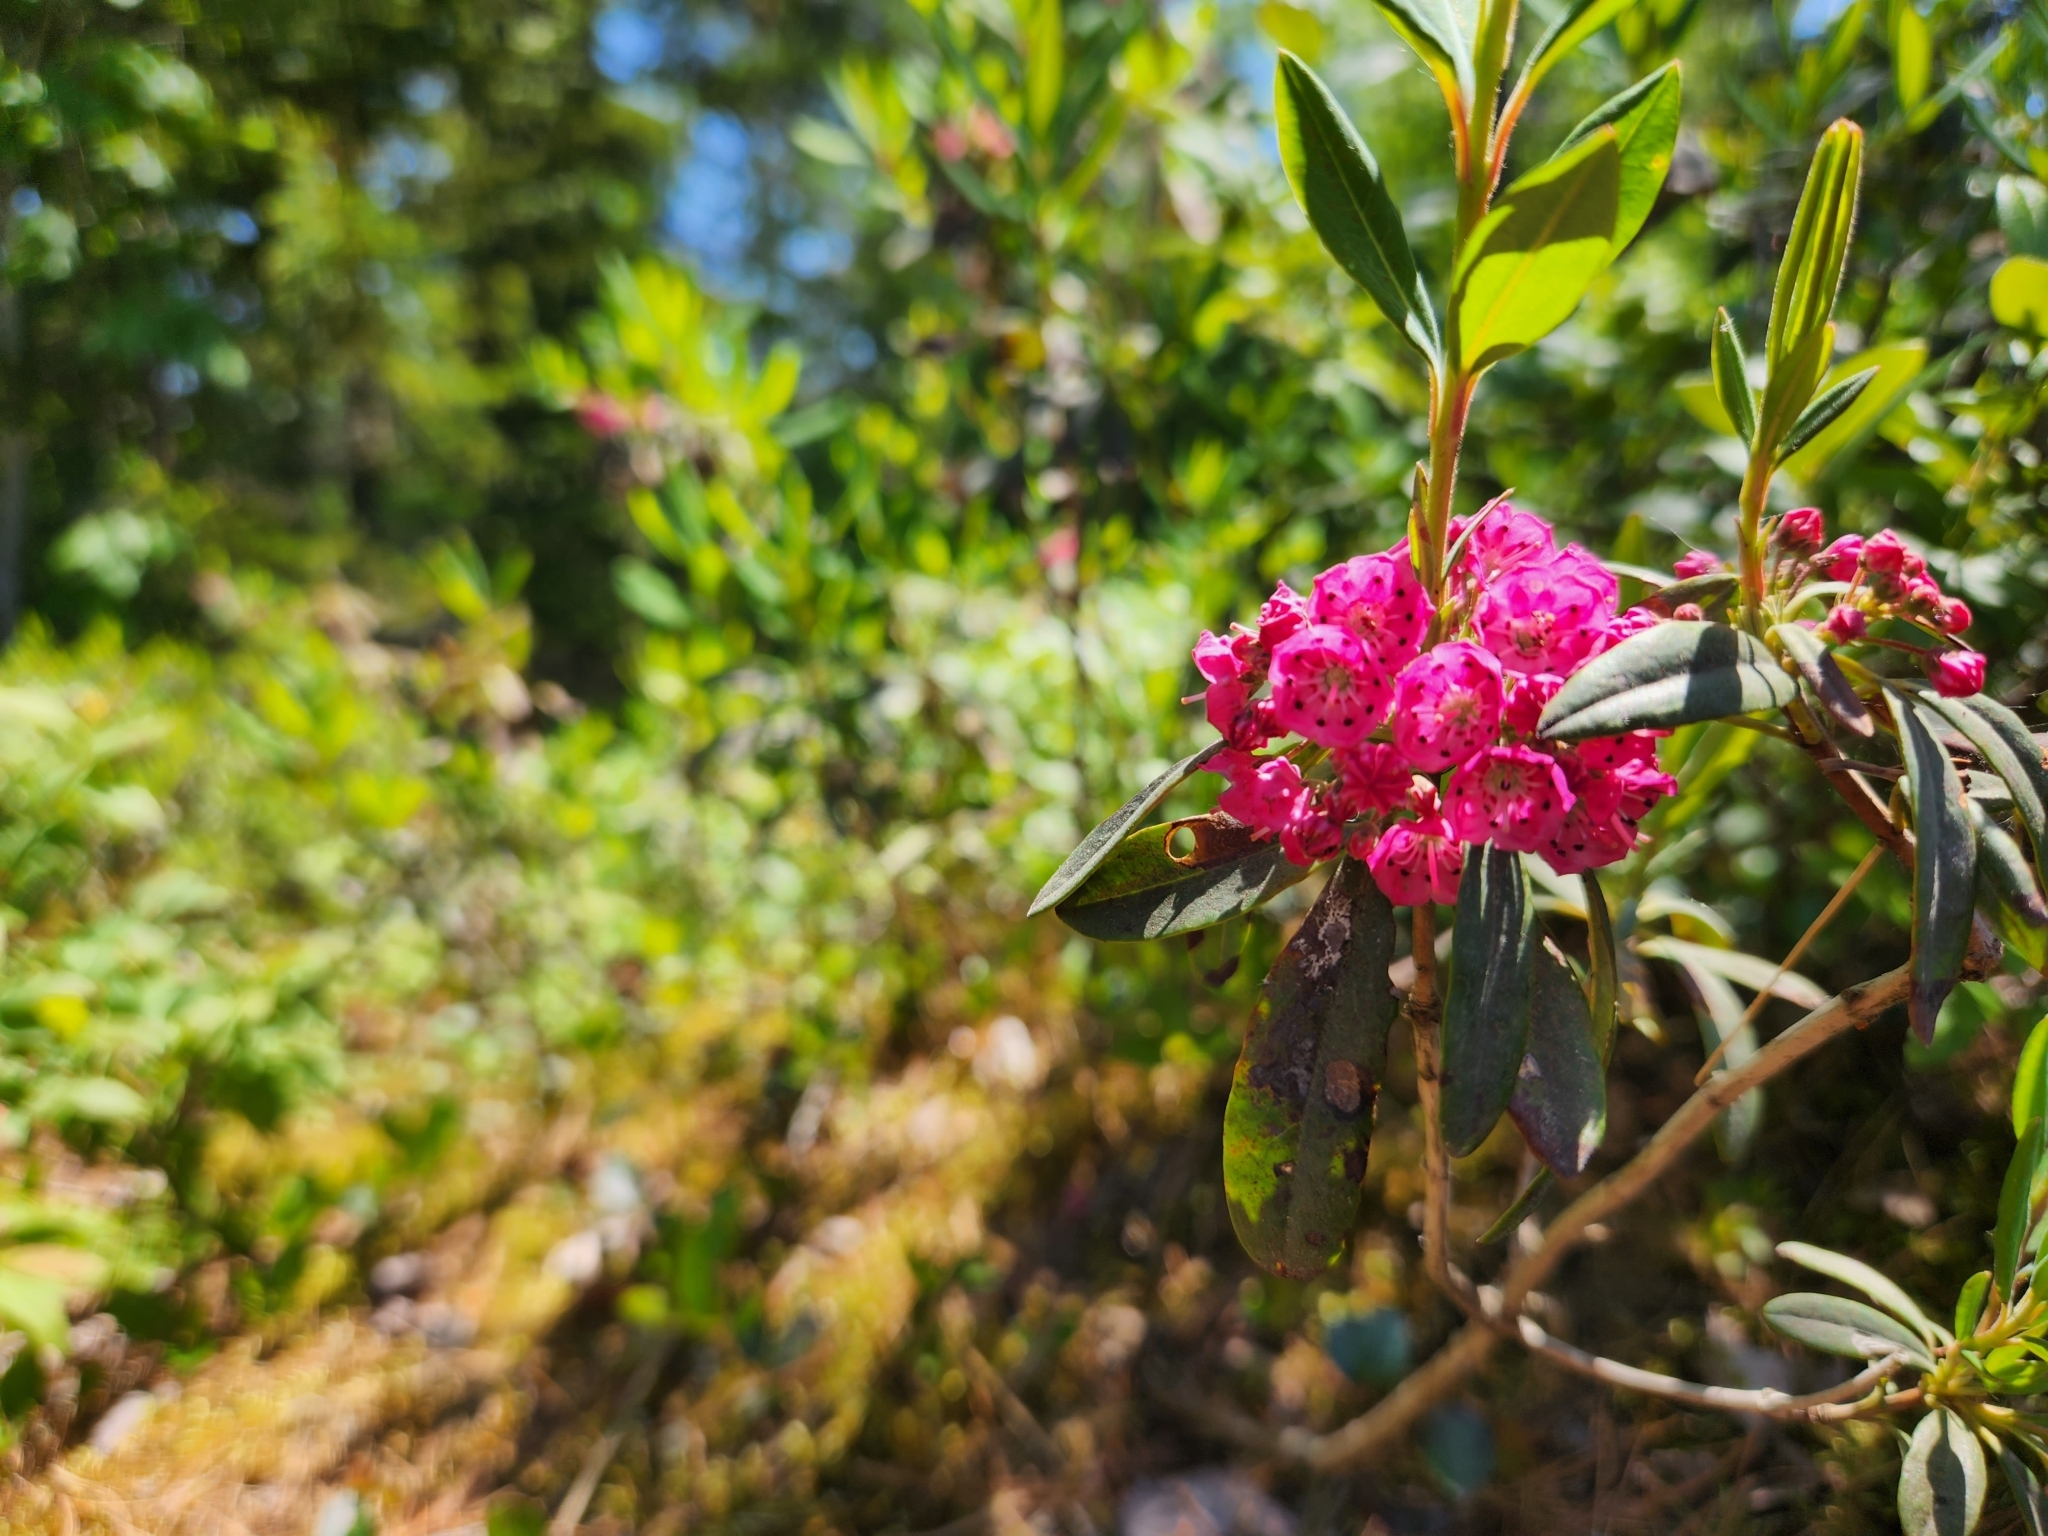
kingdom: Plantae
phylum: Tracheophyta
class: Magnoliopsida
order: Ericales
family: Ericaceae
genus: Kalmia
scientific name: Kalmia angustifolia
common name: Sheep-laurel
